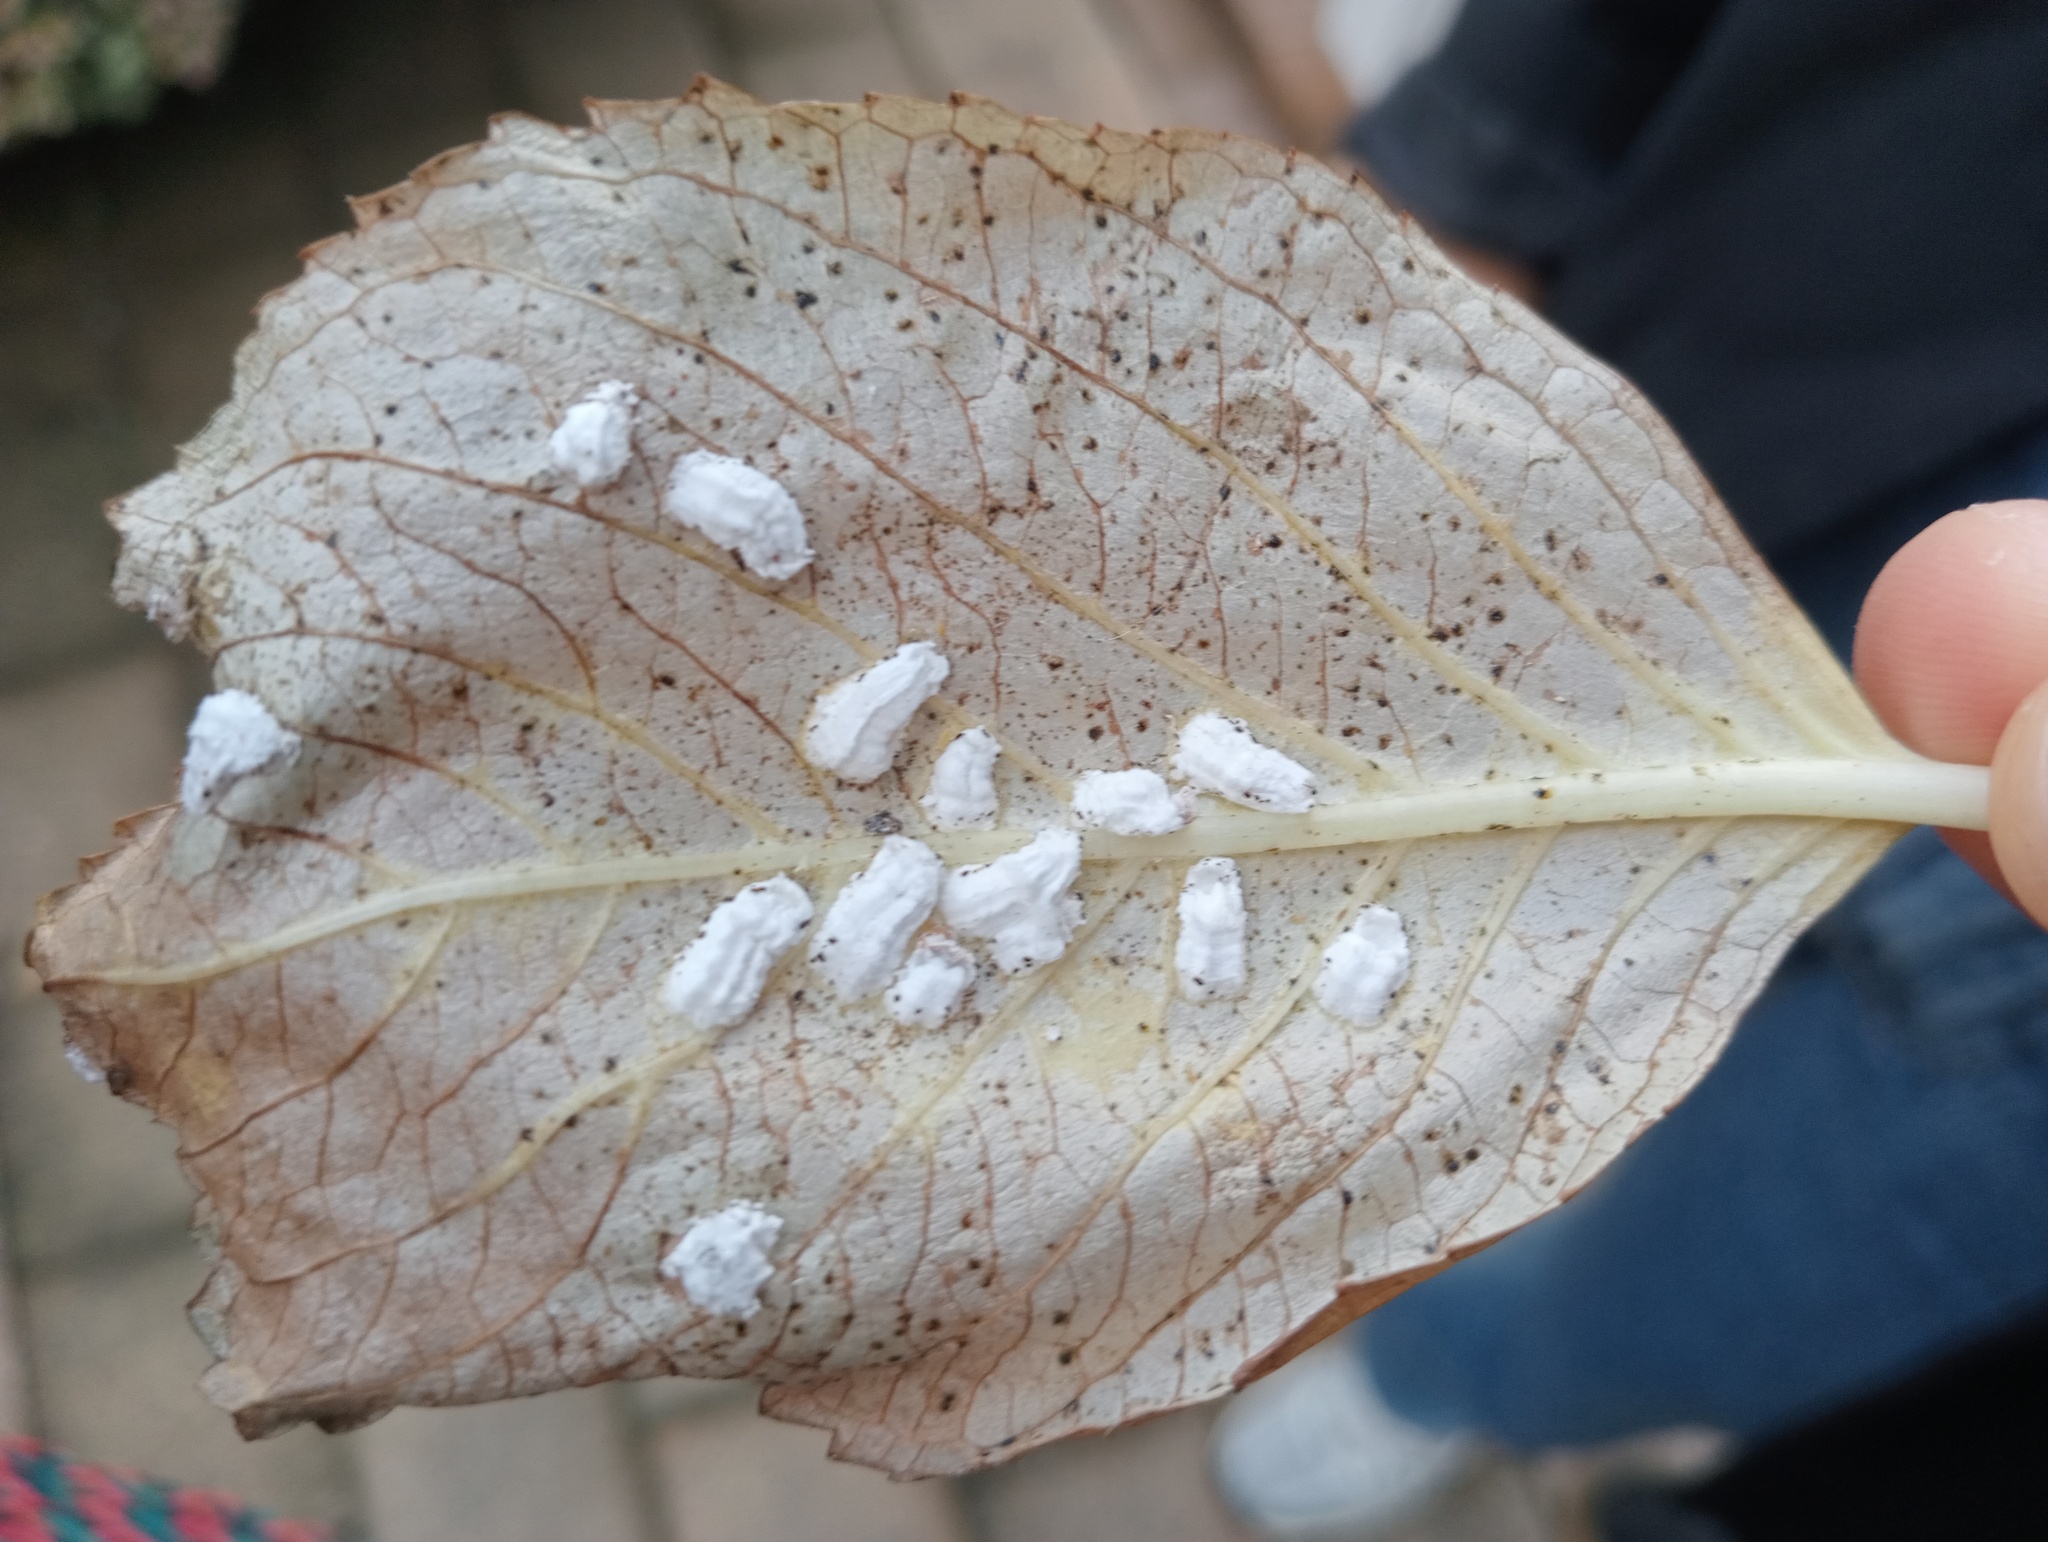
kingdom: Animalia
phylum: Arthropoda
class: Insecta
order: Hemiptera
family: Coccidae
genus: Pulvinaria
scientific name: Pulvinaria hydrangeae
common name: Cottony hydrangea scale
